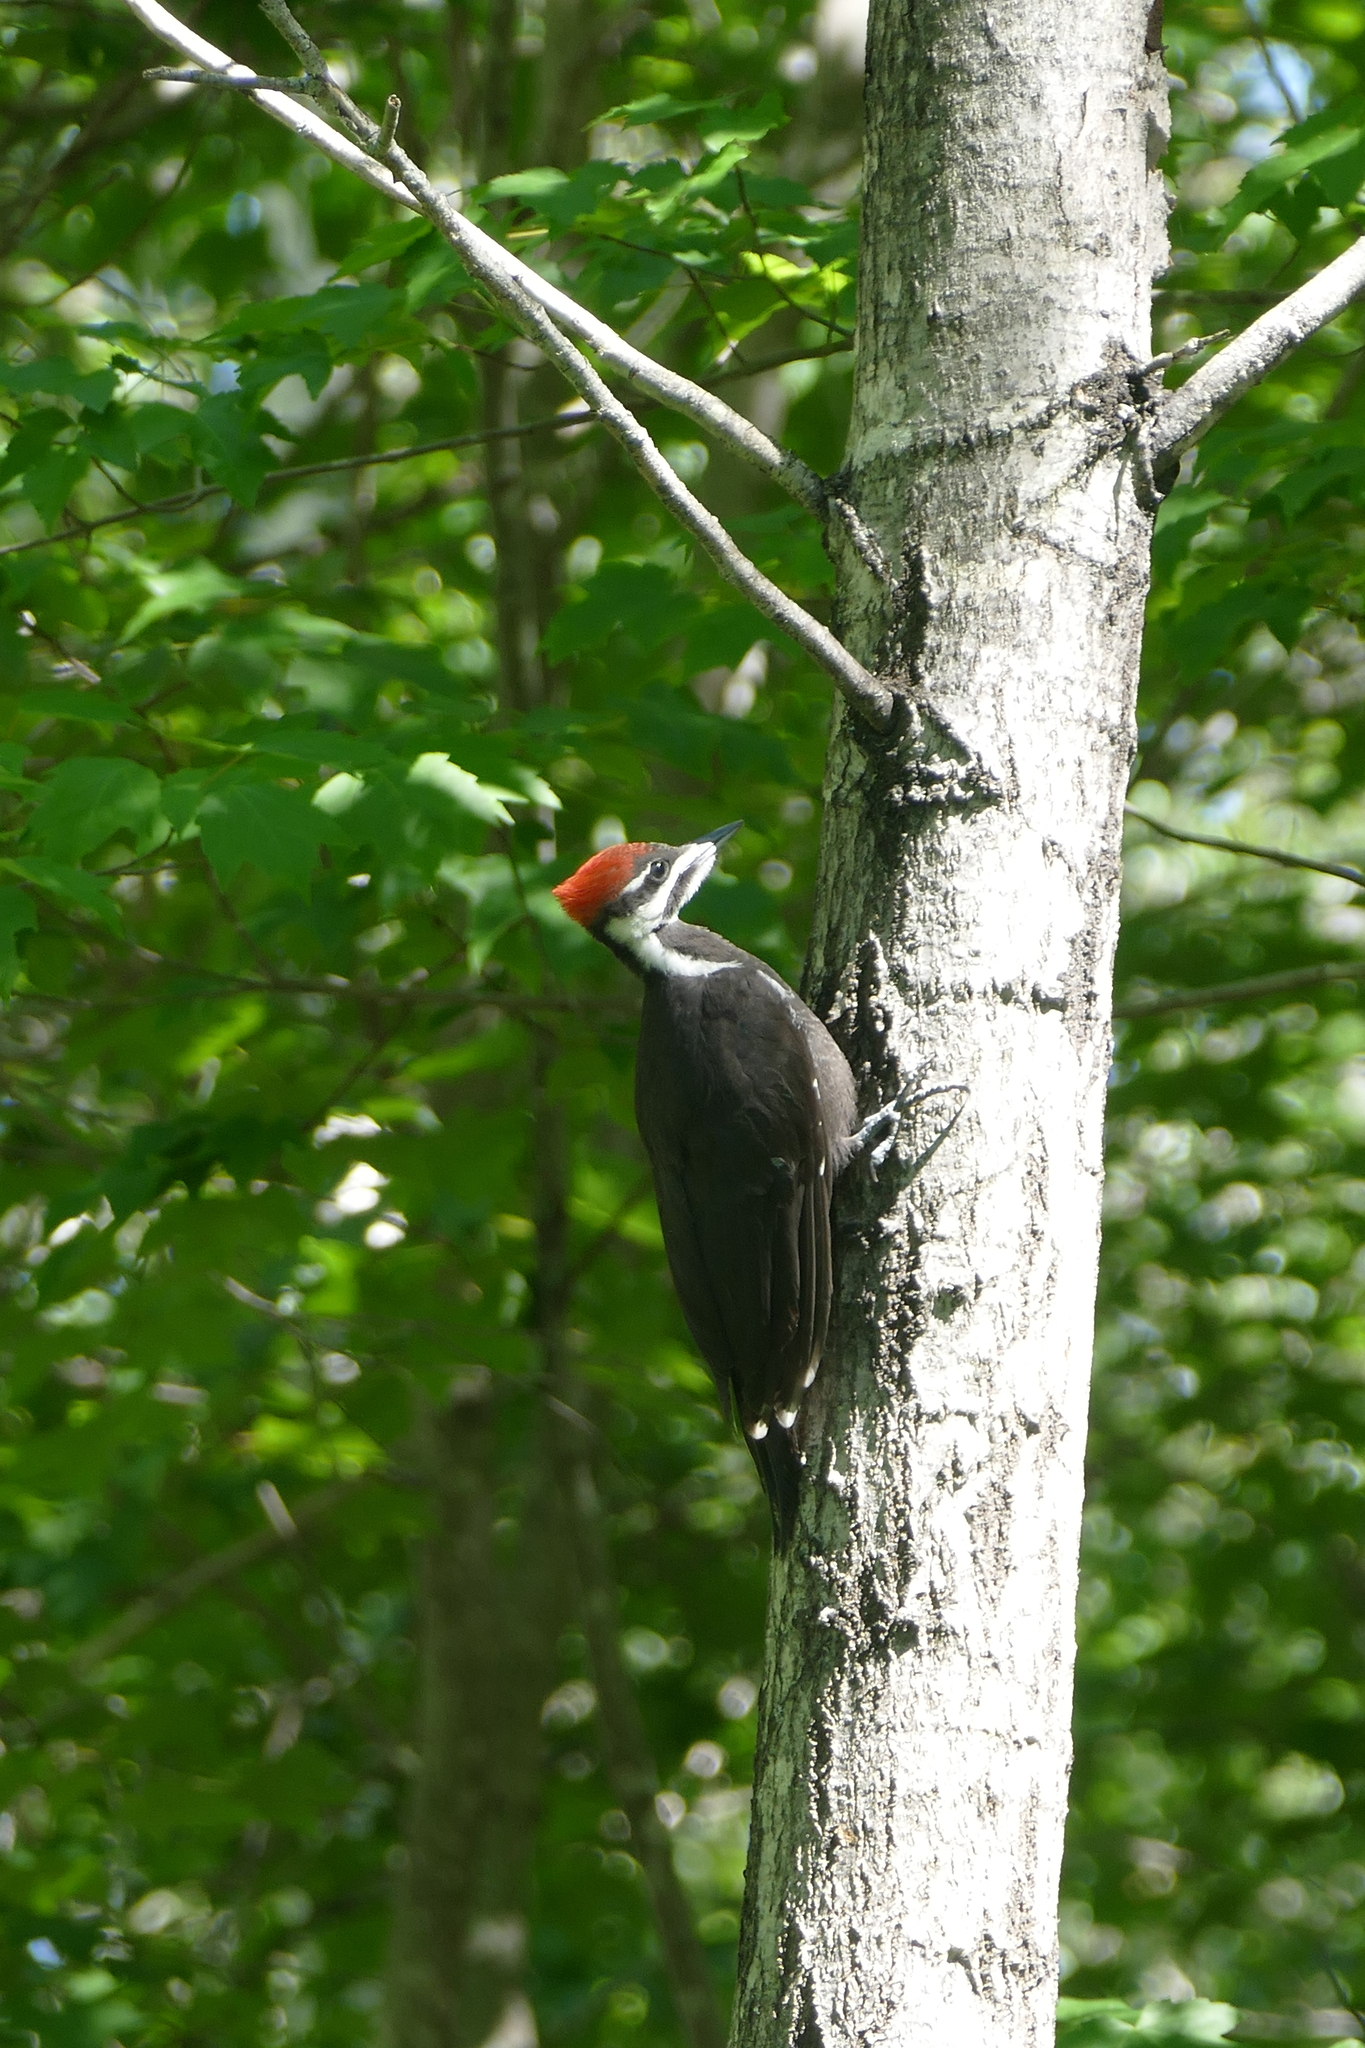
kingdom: Animalia
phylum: Chordata
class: Aves
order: Piciformes
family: Picidae
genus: Dryocopus
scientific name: Dryocopus pileatus
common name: Pileated woodpecker
